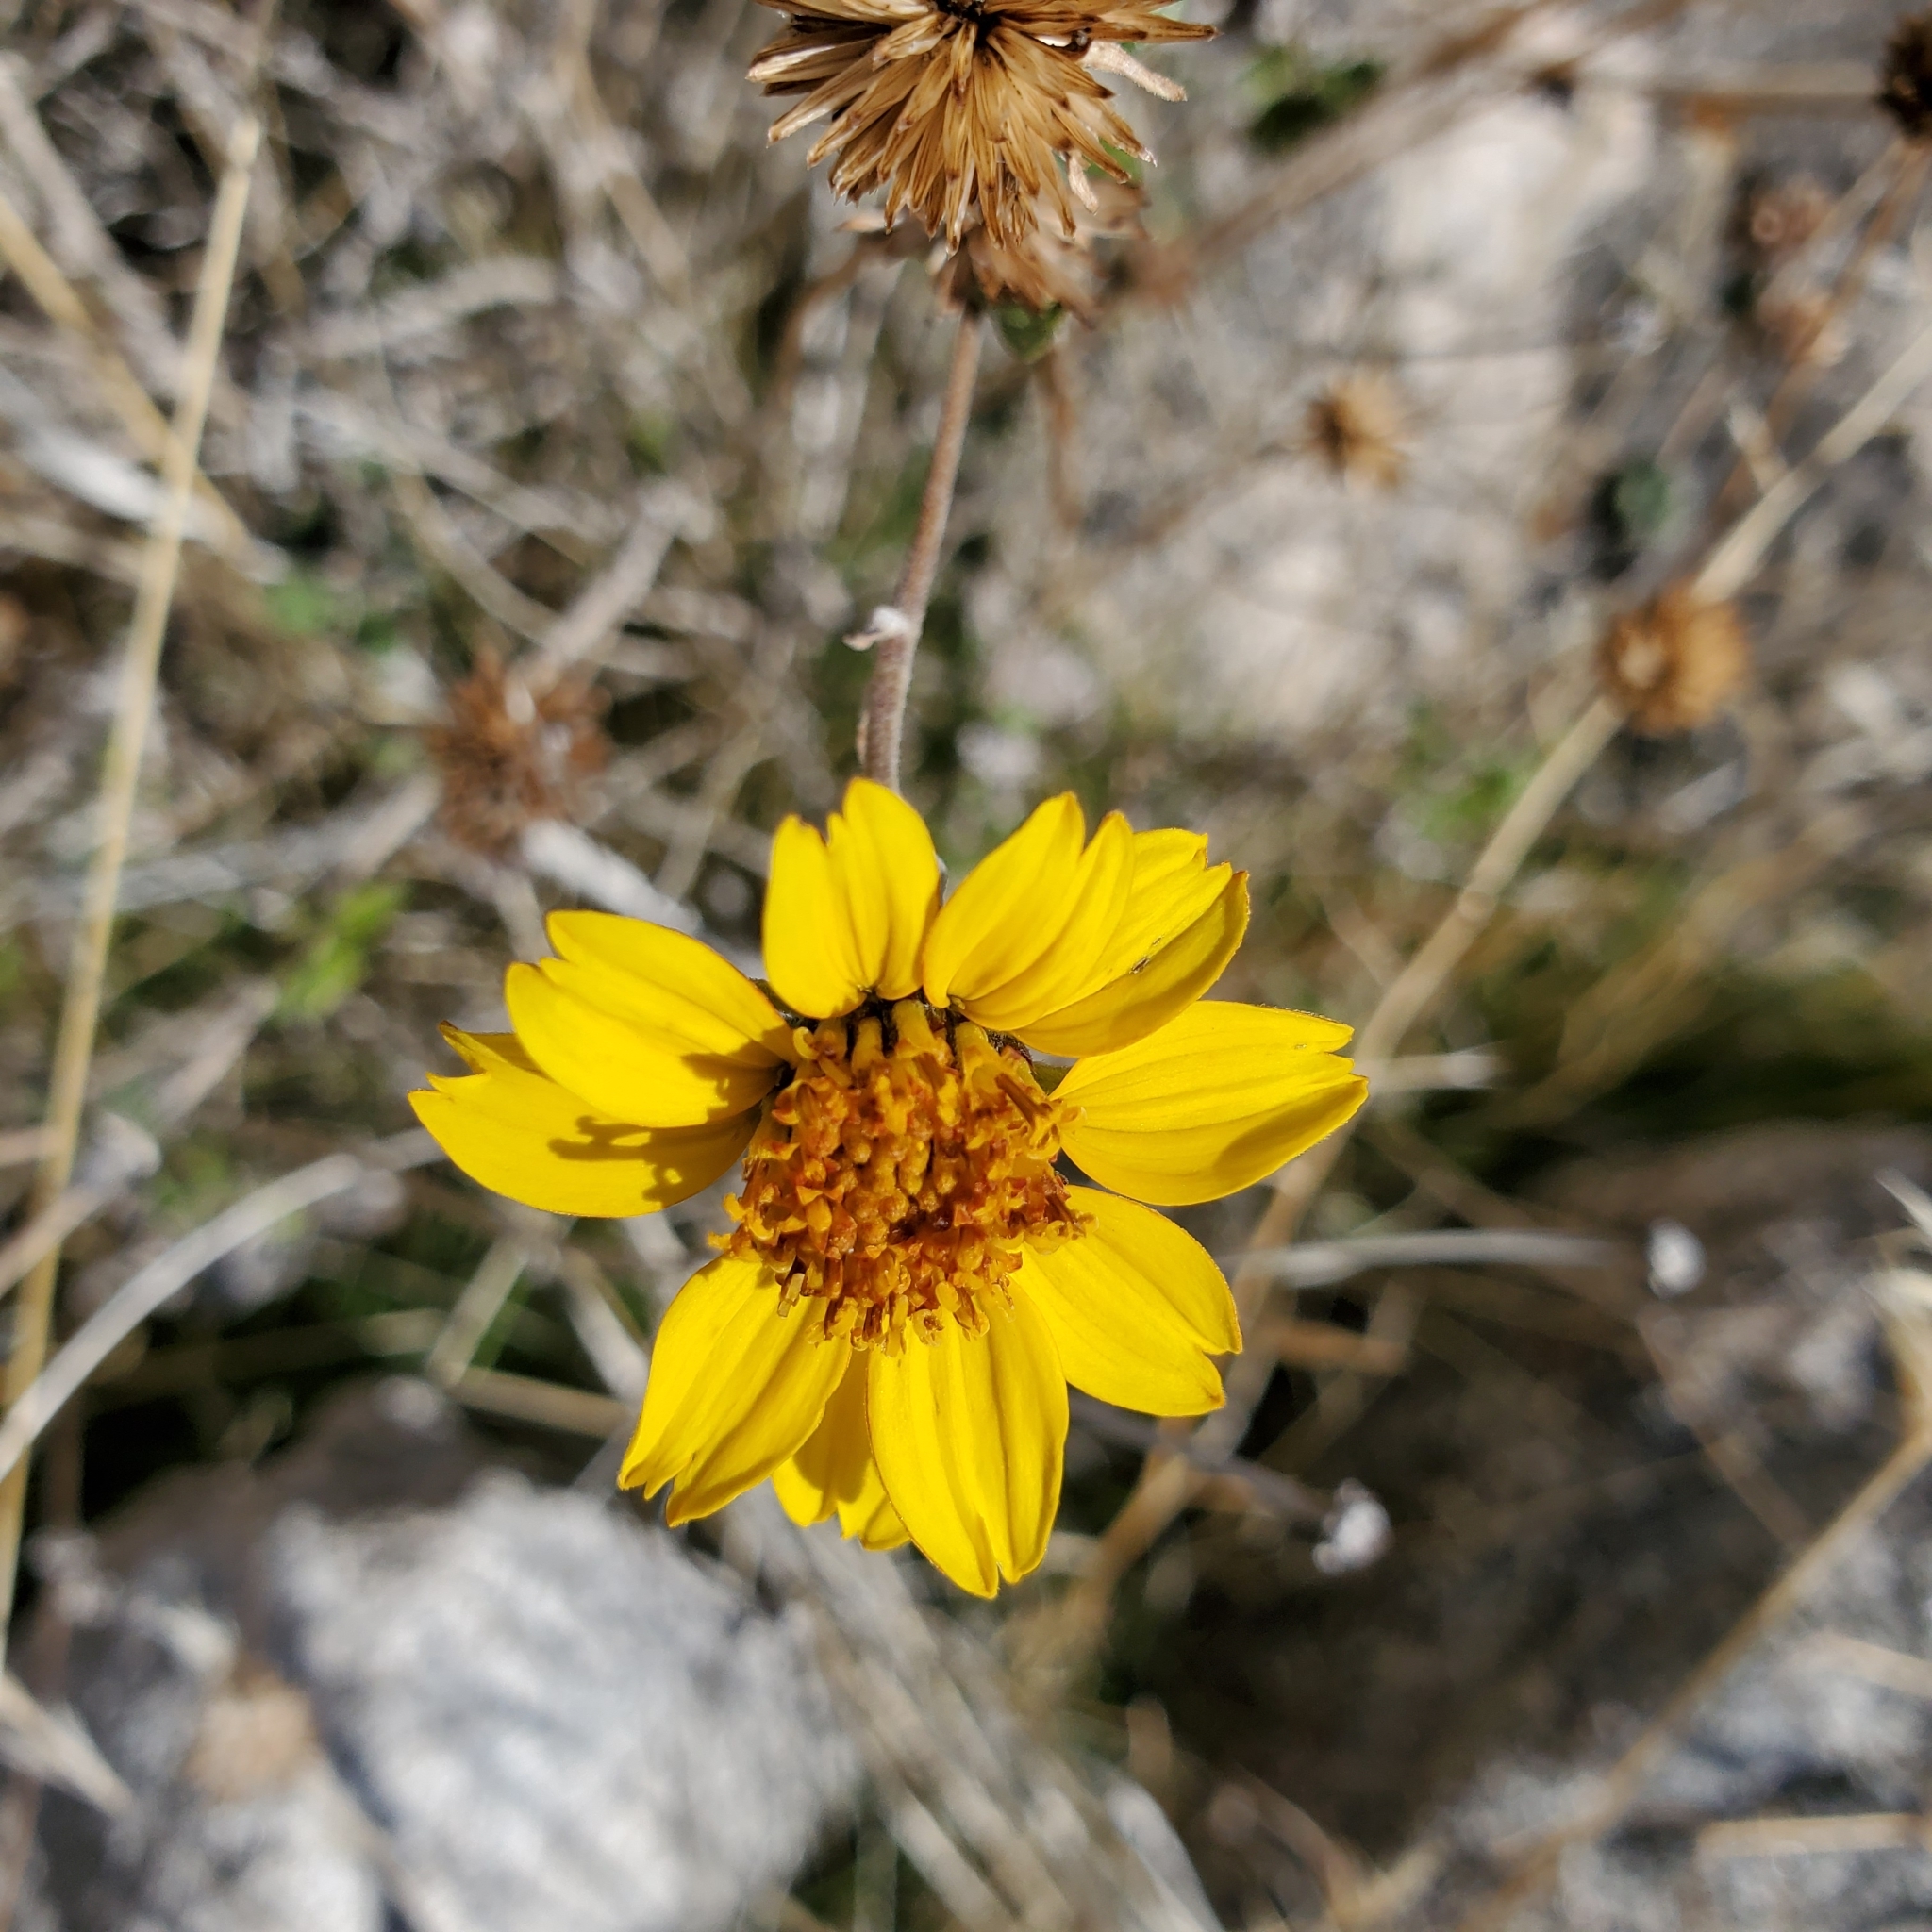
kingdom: Plantae
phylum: Tracheophyta
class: Magnoliopsida
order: Asterales
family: Asteraceae
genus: Bahiopsis
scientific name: Bahiopsis parishii
